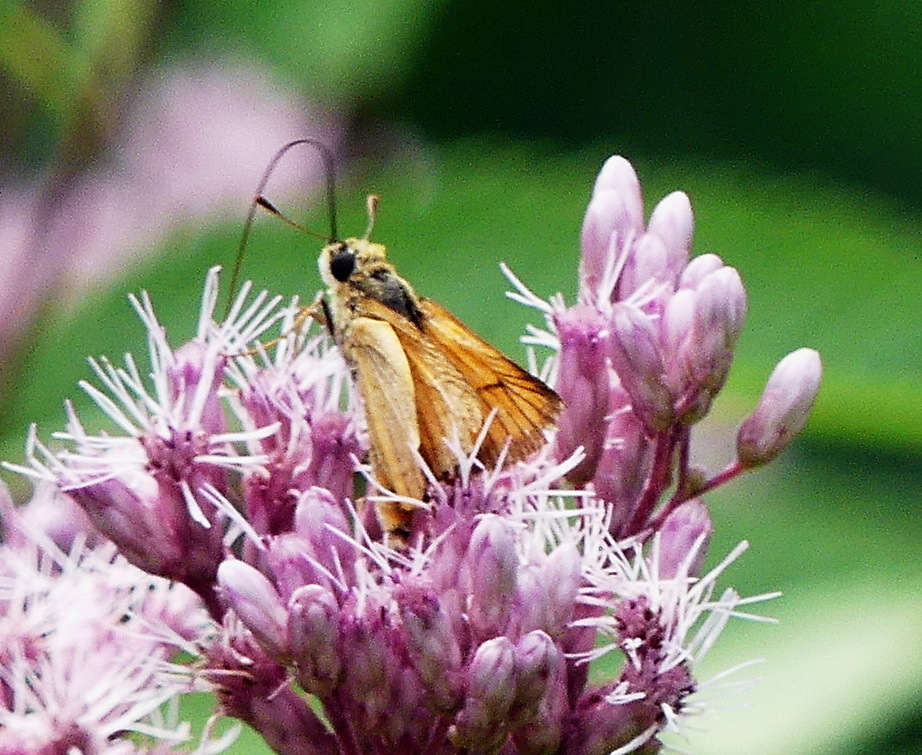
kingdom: Animalia
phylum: Arthropoda
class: Insecta
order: Lepidoptera
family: Hesperiidae
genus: Atrytone
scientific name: Atrytone delaware
